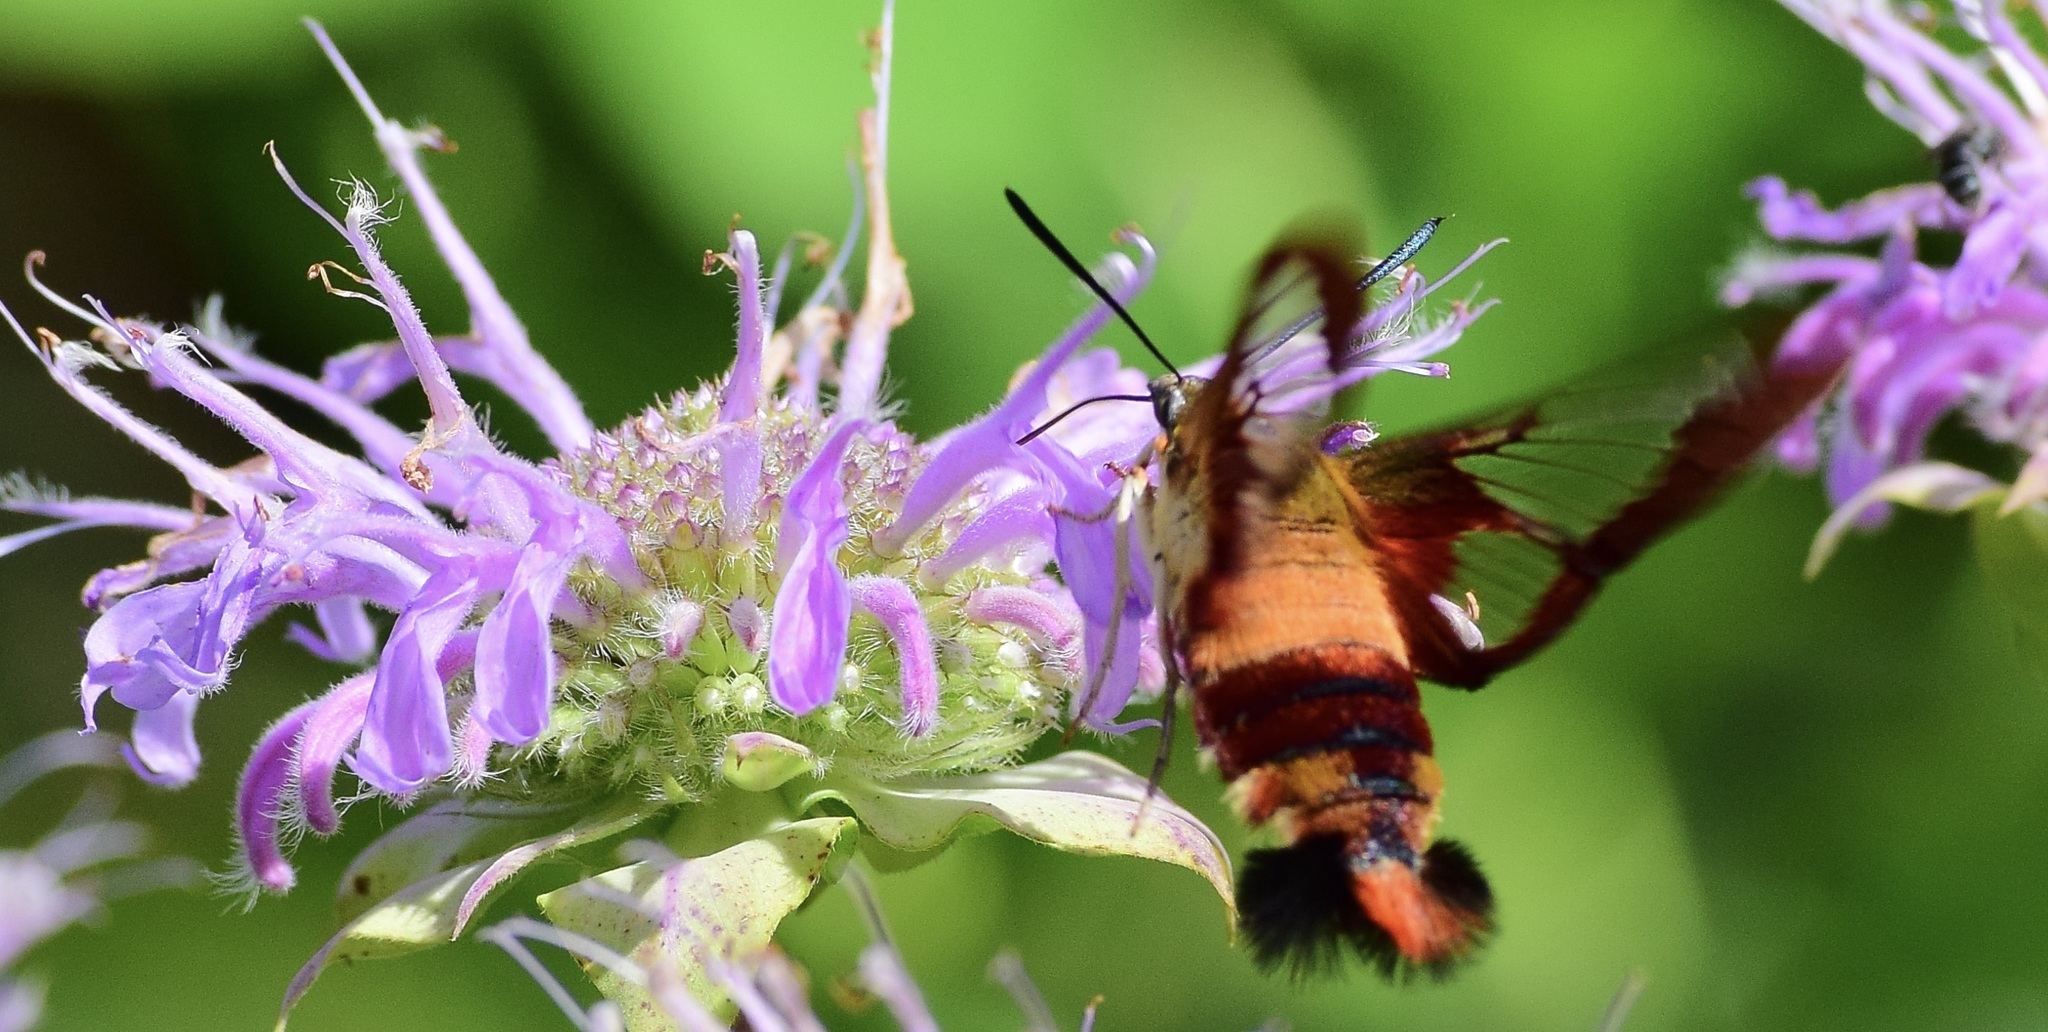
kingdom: Animalia
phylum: Arthropoda
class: Insecta
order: Lepidoptera
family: Sphingidae
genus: Hemaris
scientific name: Hemaris thysbe
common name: Common clear-wing
